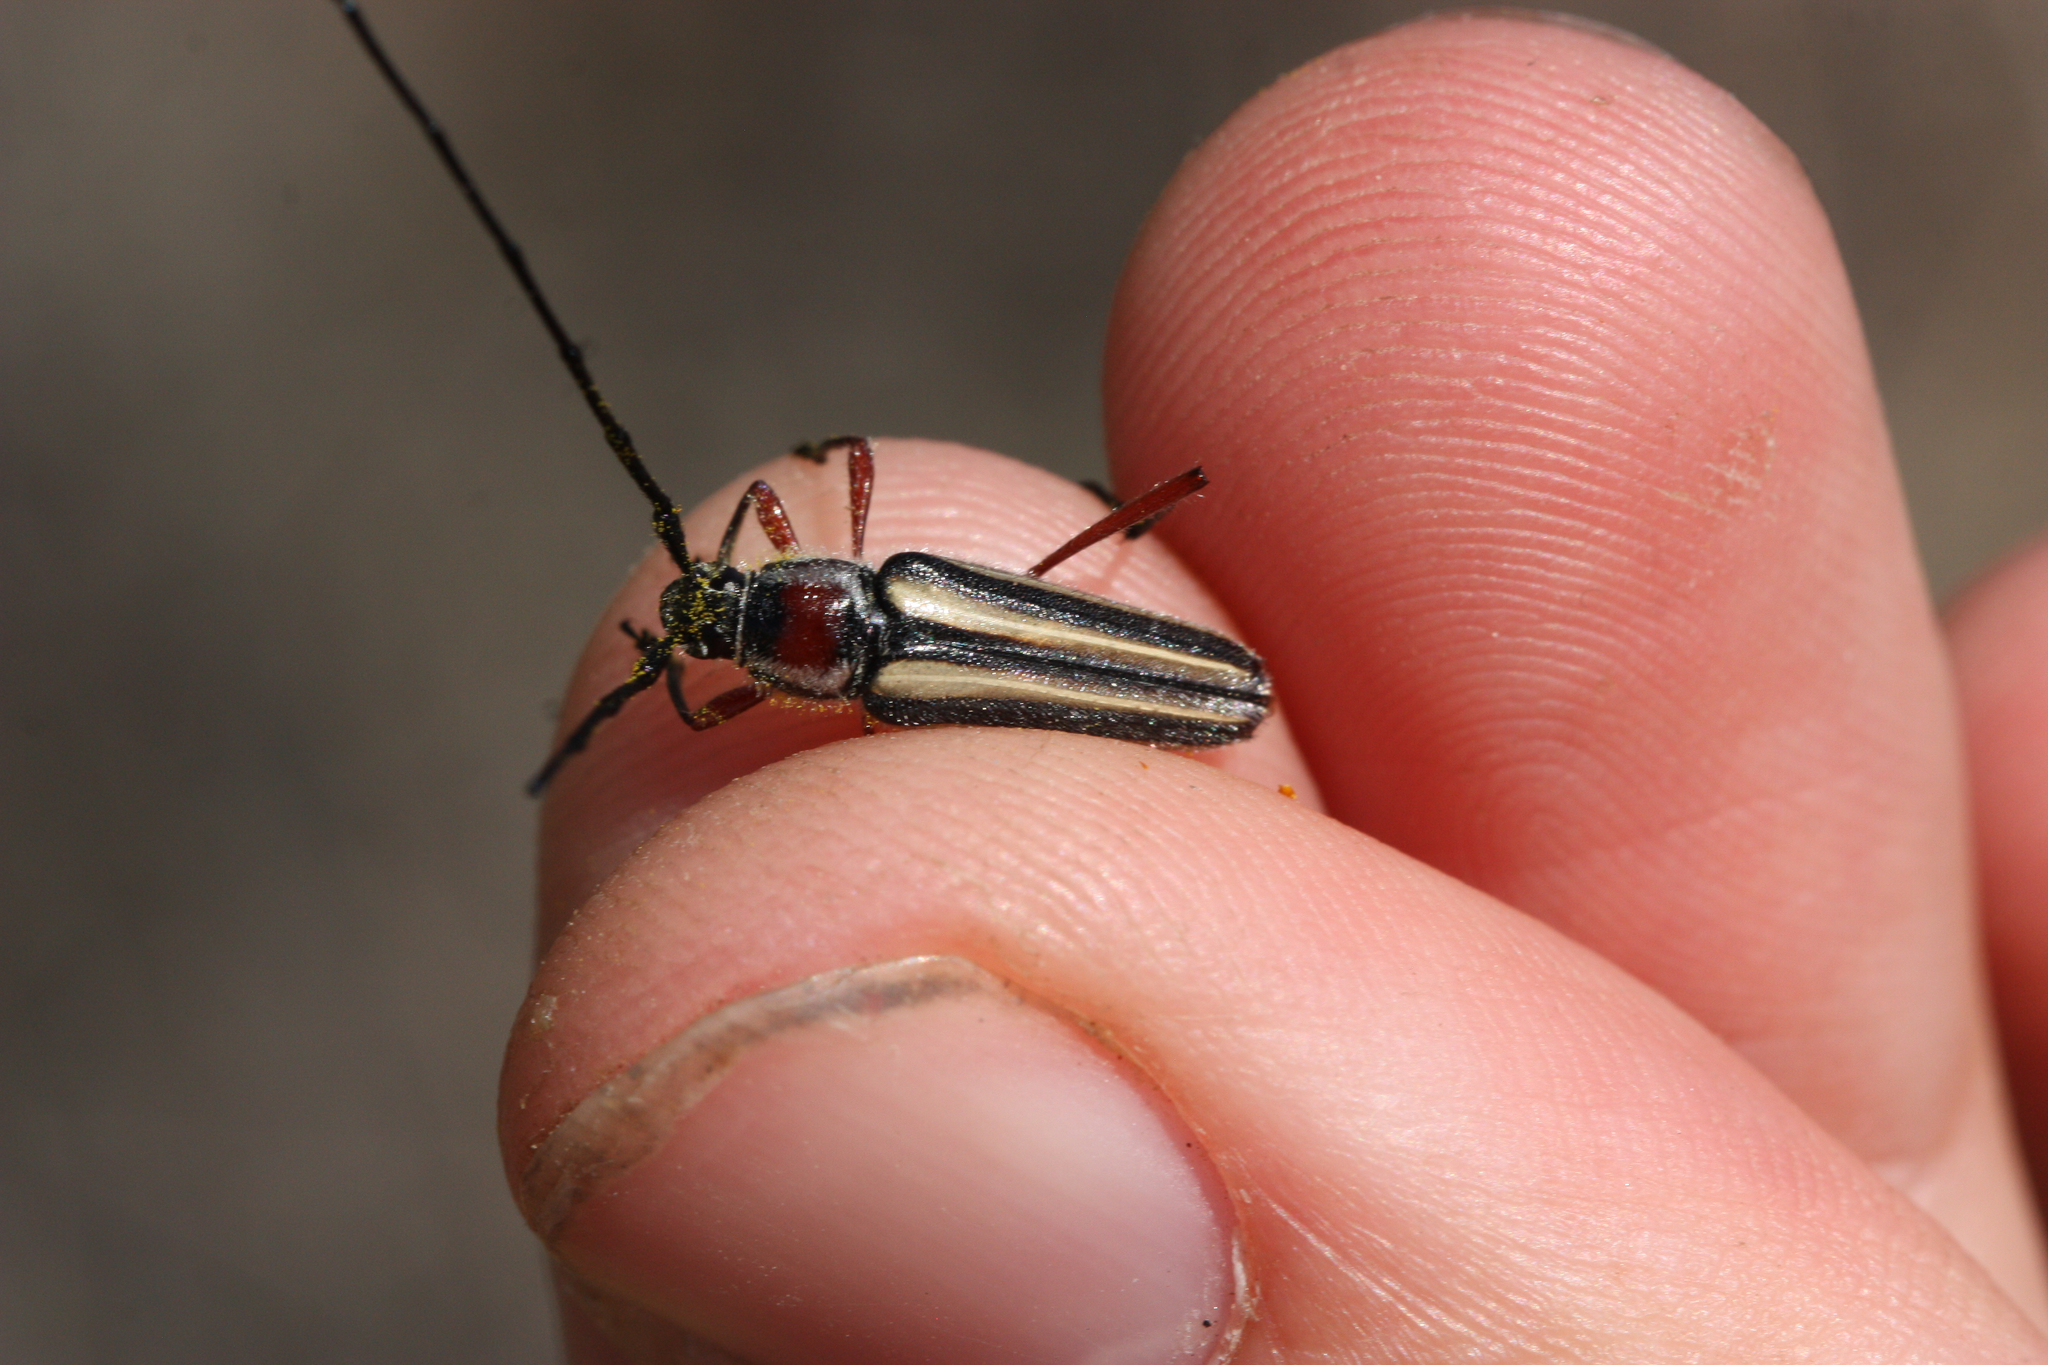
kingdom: Animalia
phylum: Arthropoda
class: Insecta
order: Coleoptera
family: Cerambycidae
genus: Sphaenothecus
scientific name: Sphaenothecus bilineatus
